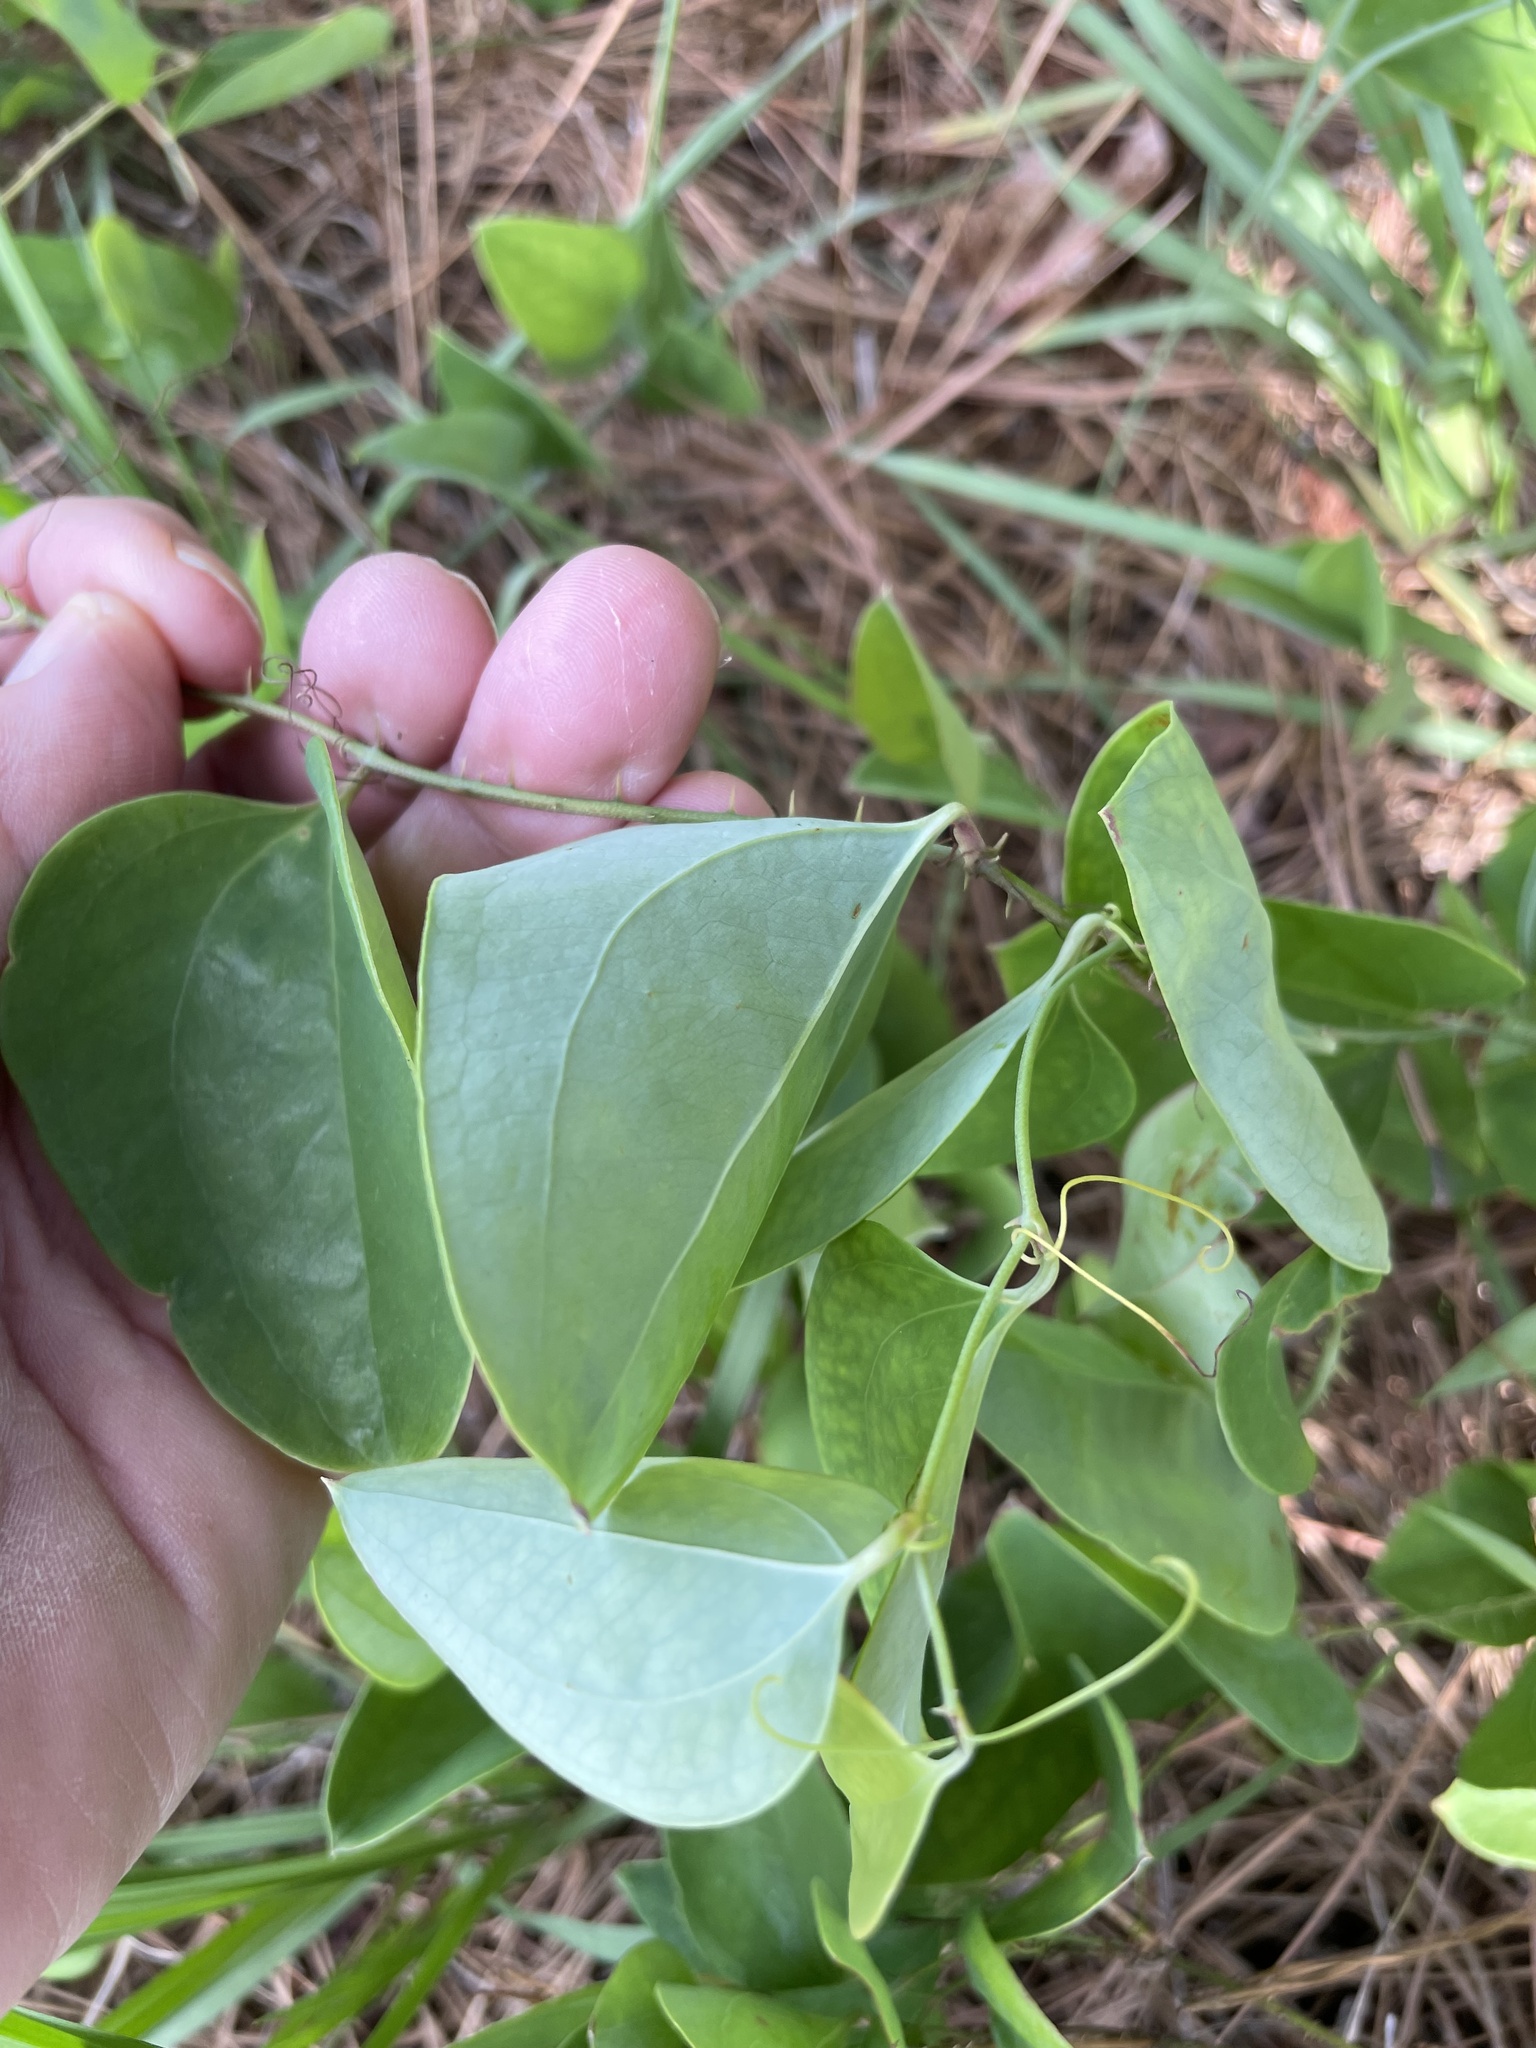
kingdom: Plantae
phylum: Tracheophyta
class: Liliopsida
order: Liliales
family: Smilacaceae
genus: Smilax
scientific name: Smilax glauca
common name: Cat greenbrier
